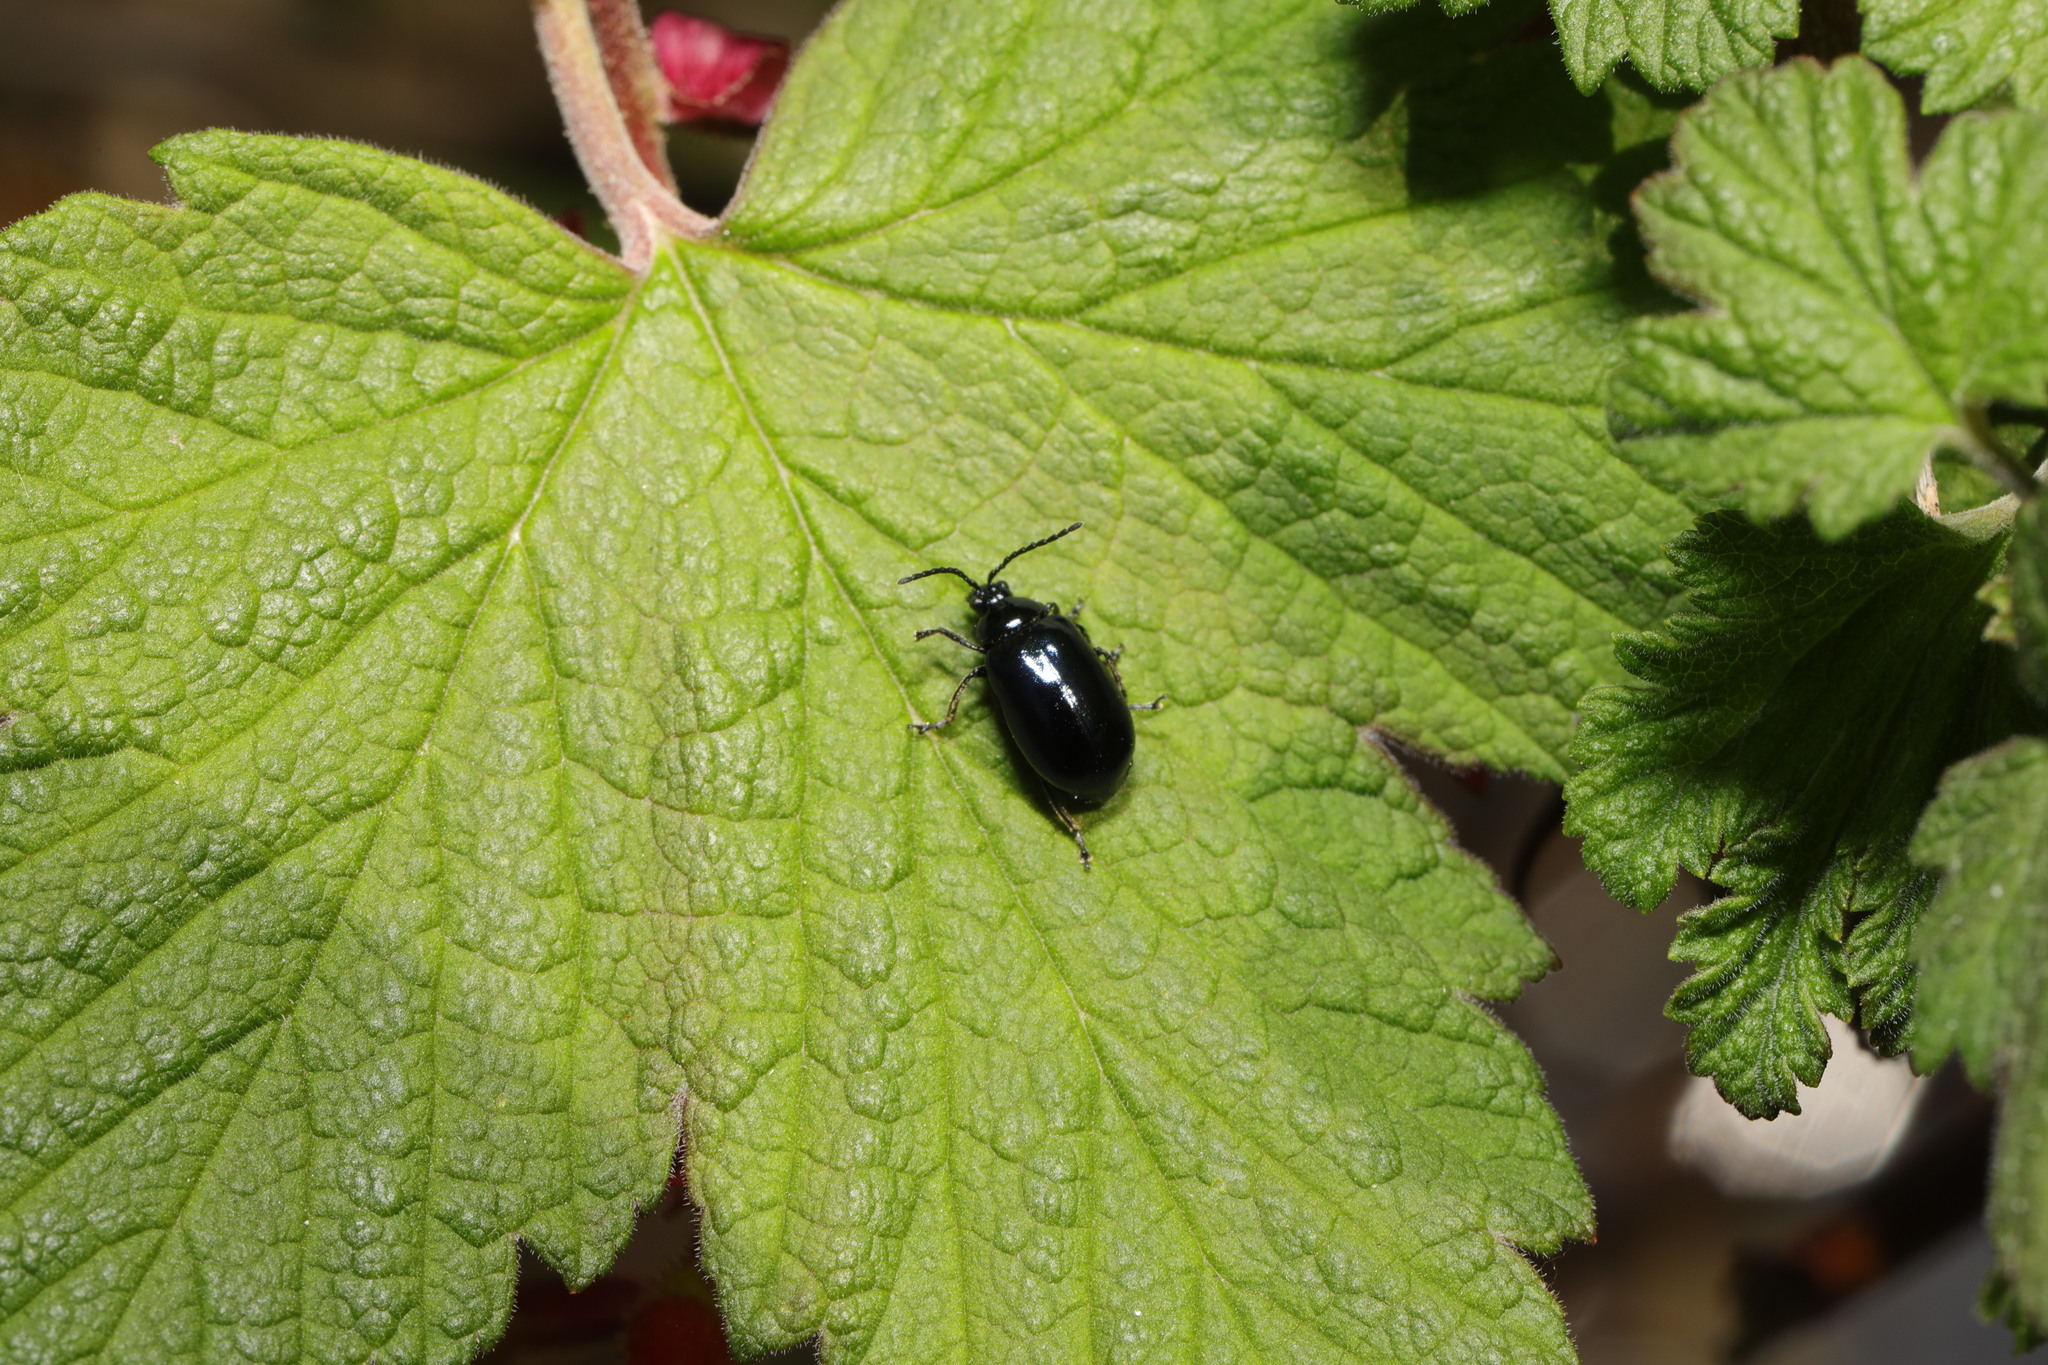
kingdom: Animalia
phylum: Arthropoda
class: Insecta
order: Coleoptera
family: Chrysomelidae
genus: Agelastica
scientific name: Agelastica alni
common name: Alder leaf beetle
